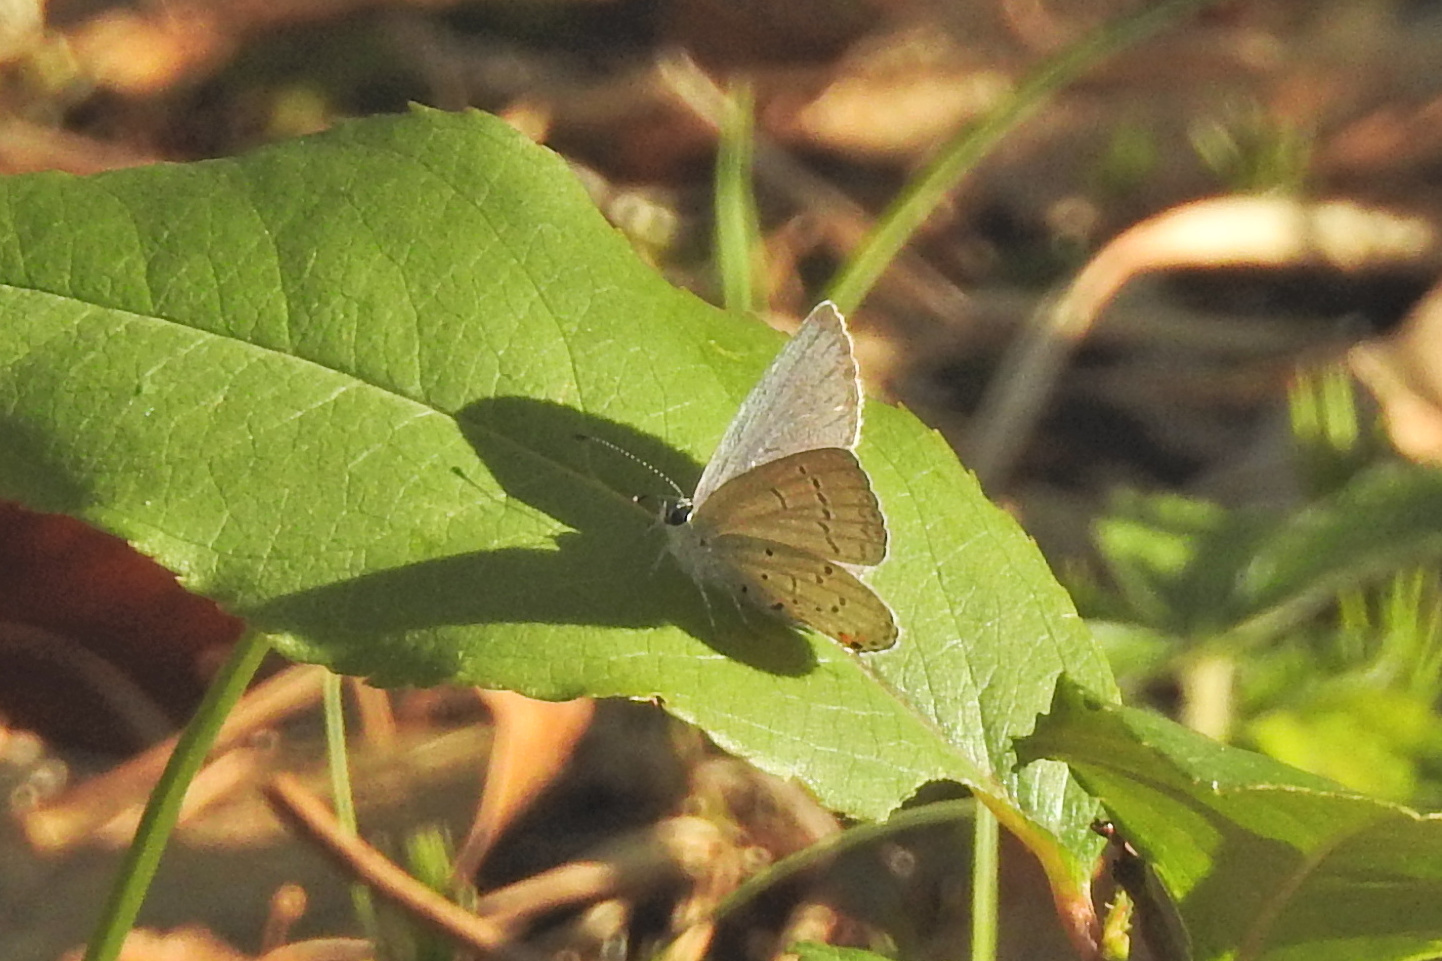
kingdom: Animalia
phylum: Arthropoda
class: Insecta
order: Lepidoptera
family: Lycaenidae
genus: Elkalyce
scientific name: Elkalyce comyntas
